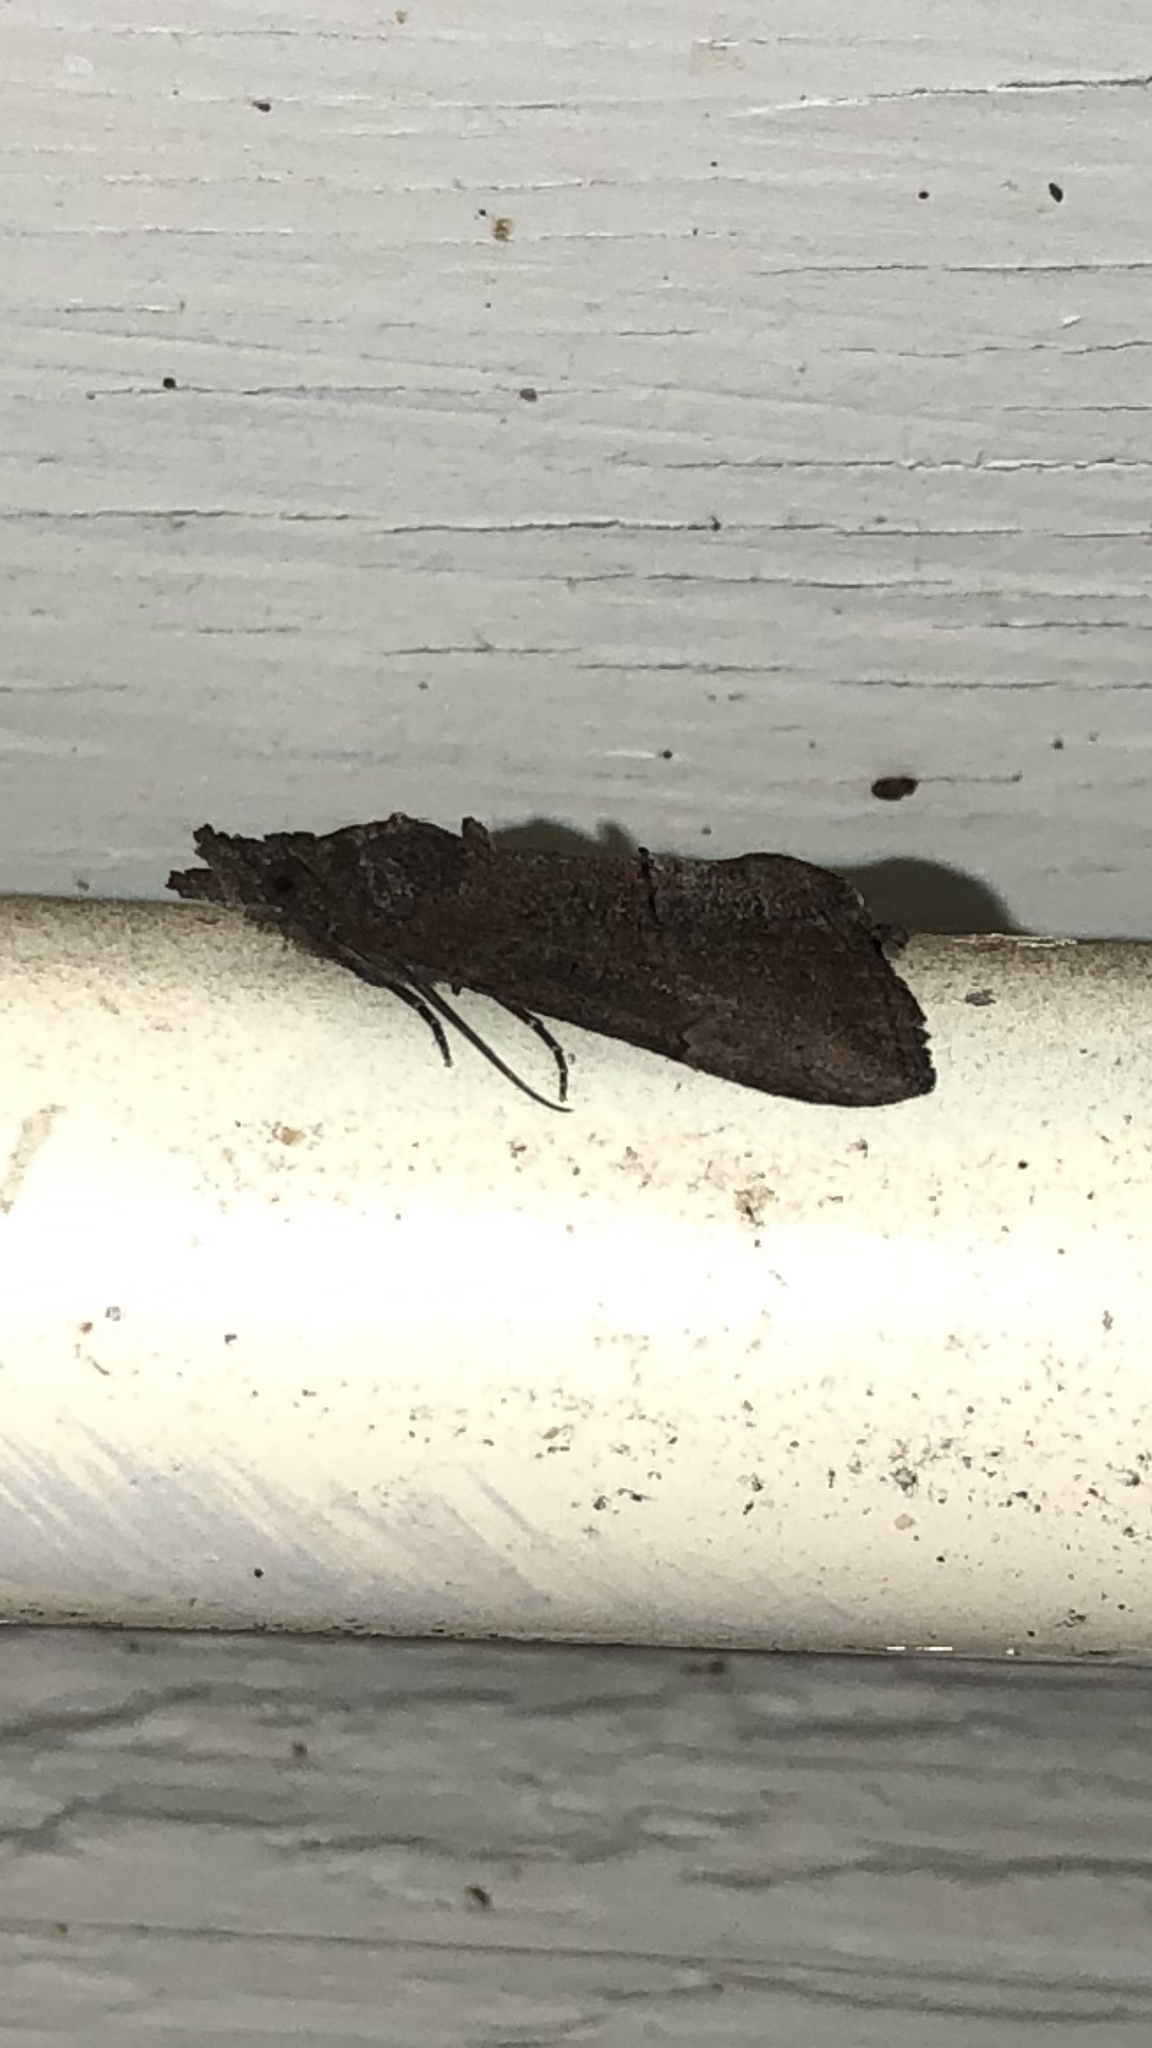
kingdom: Animalia
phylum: Arthropoda
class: Insecta
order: Lepidoptera
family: Erebidae
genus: Hypena
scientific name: Hypena scabra
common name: Green cloverworm
